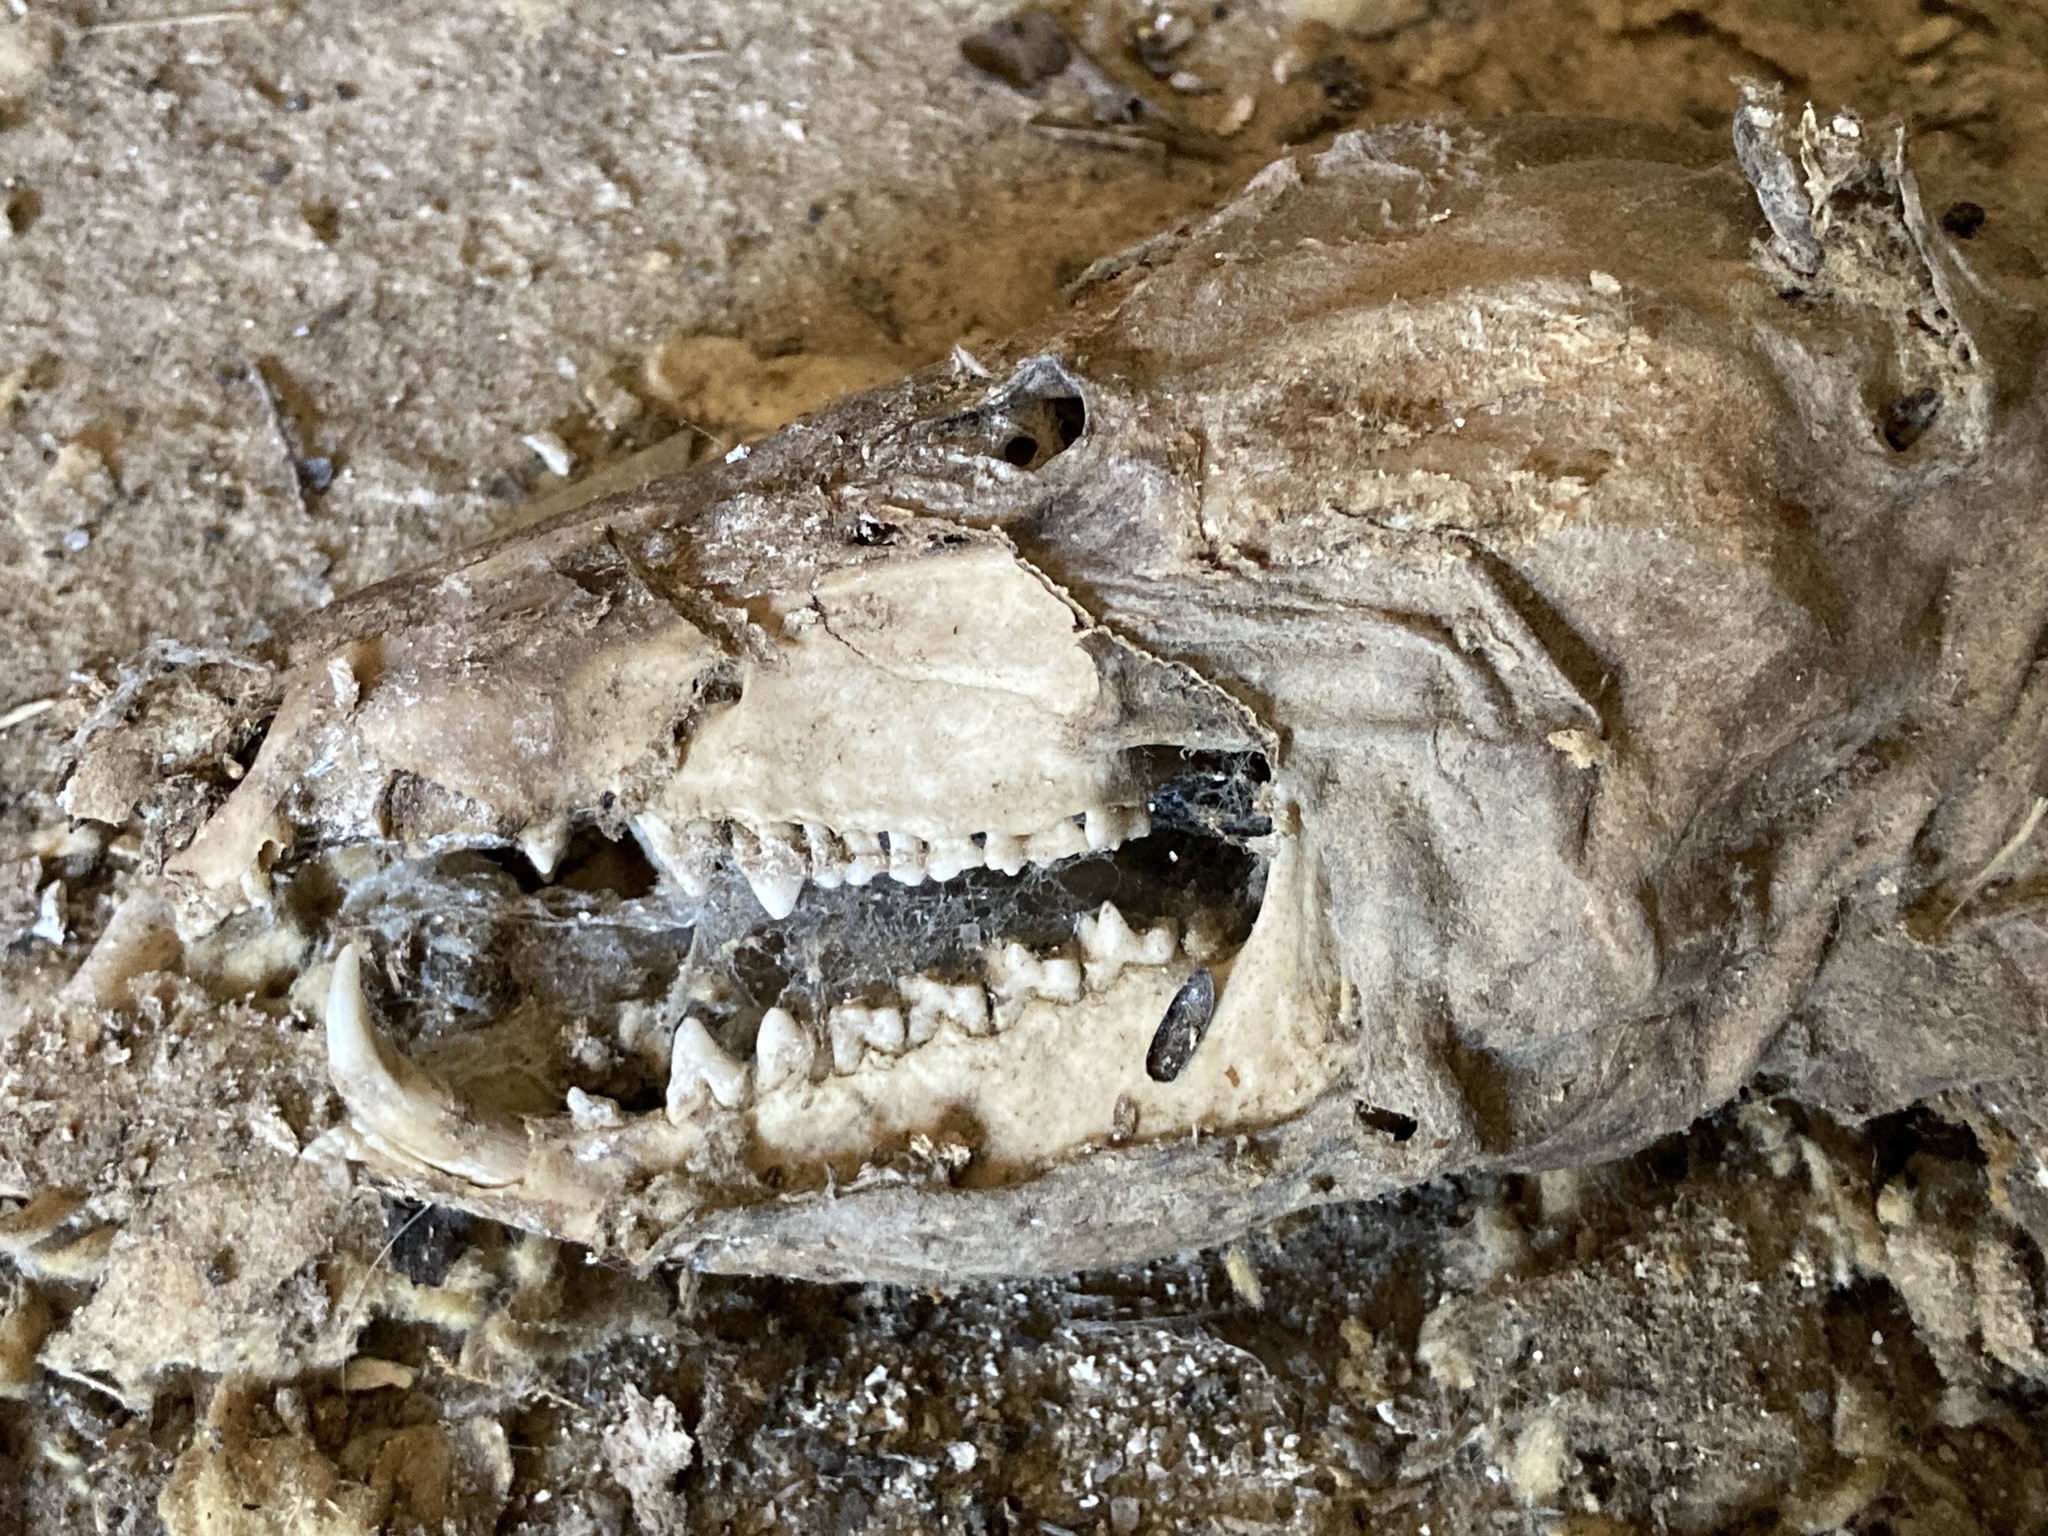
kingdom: Animalia
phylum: Chordata
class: Mammalia
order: Didelphimorphia
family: Didelphidae
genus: Didelphis
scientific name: Didelphis virginiana
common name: Virginia opossum
